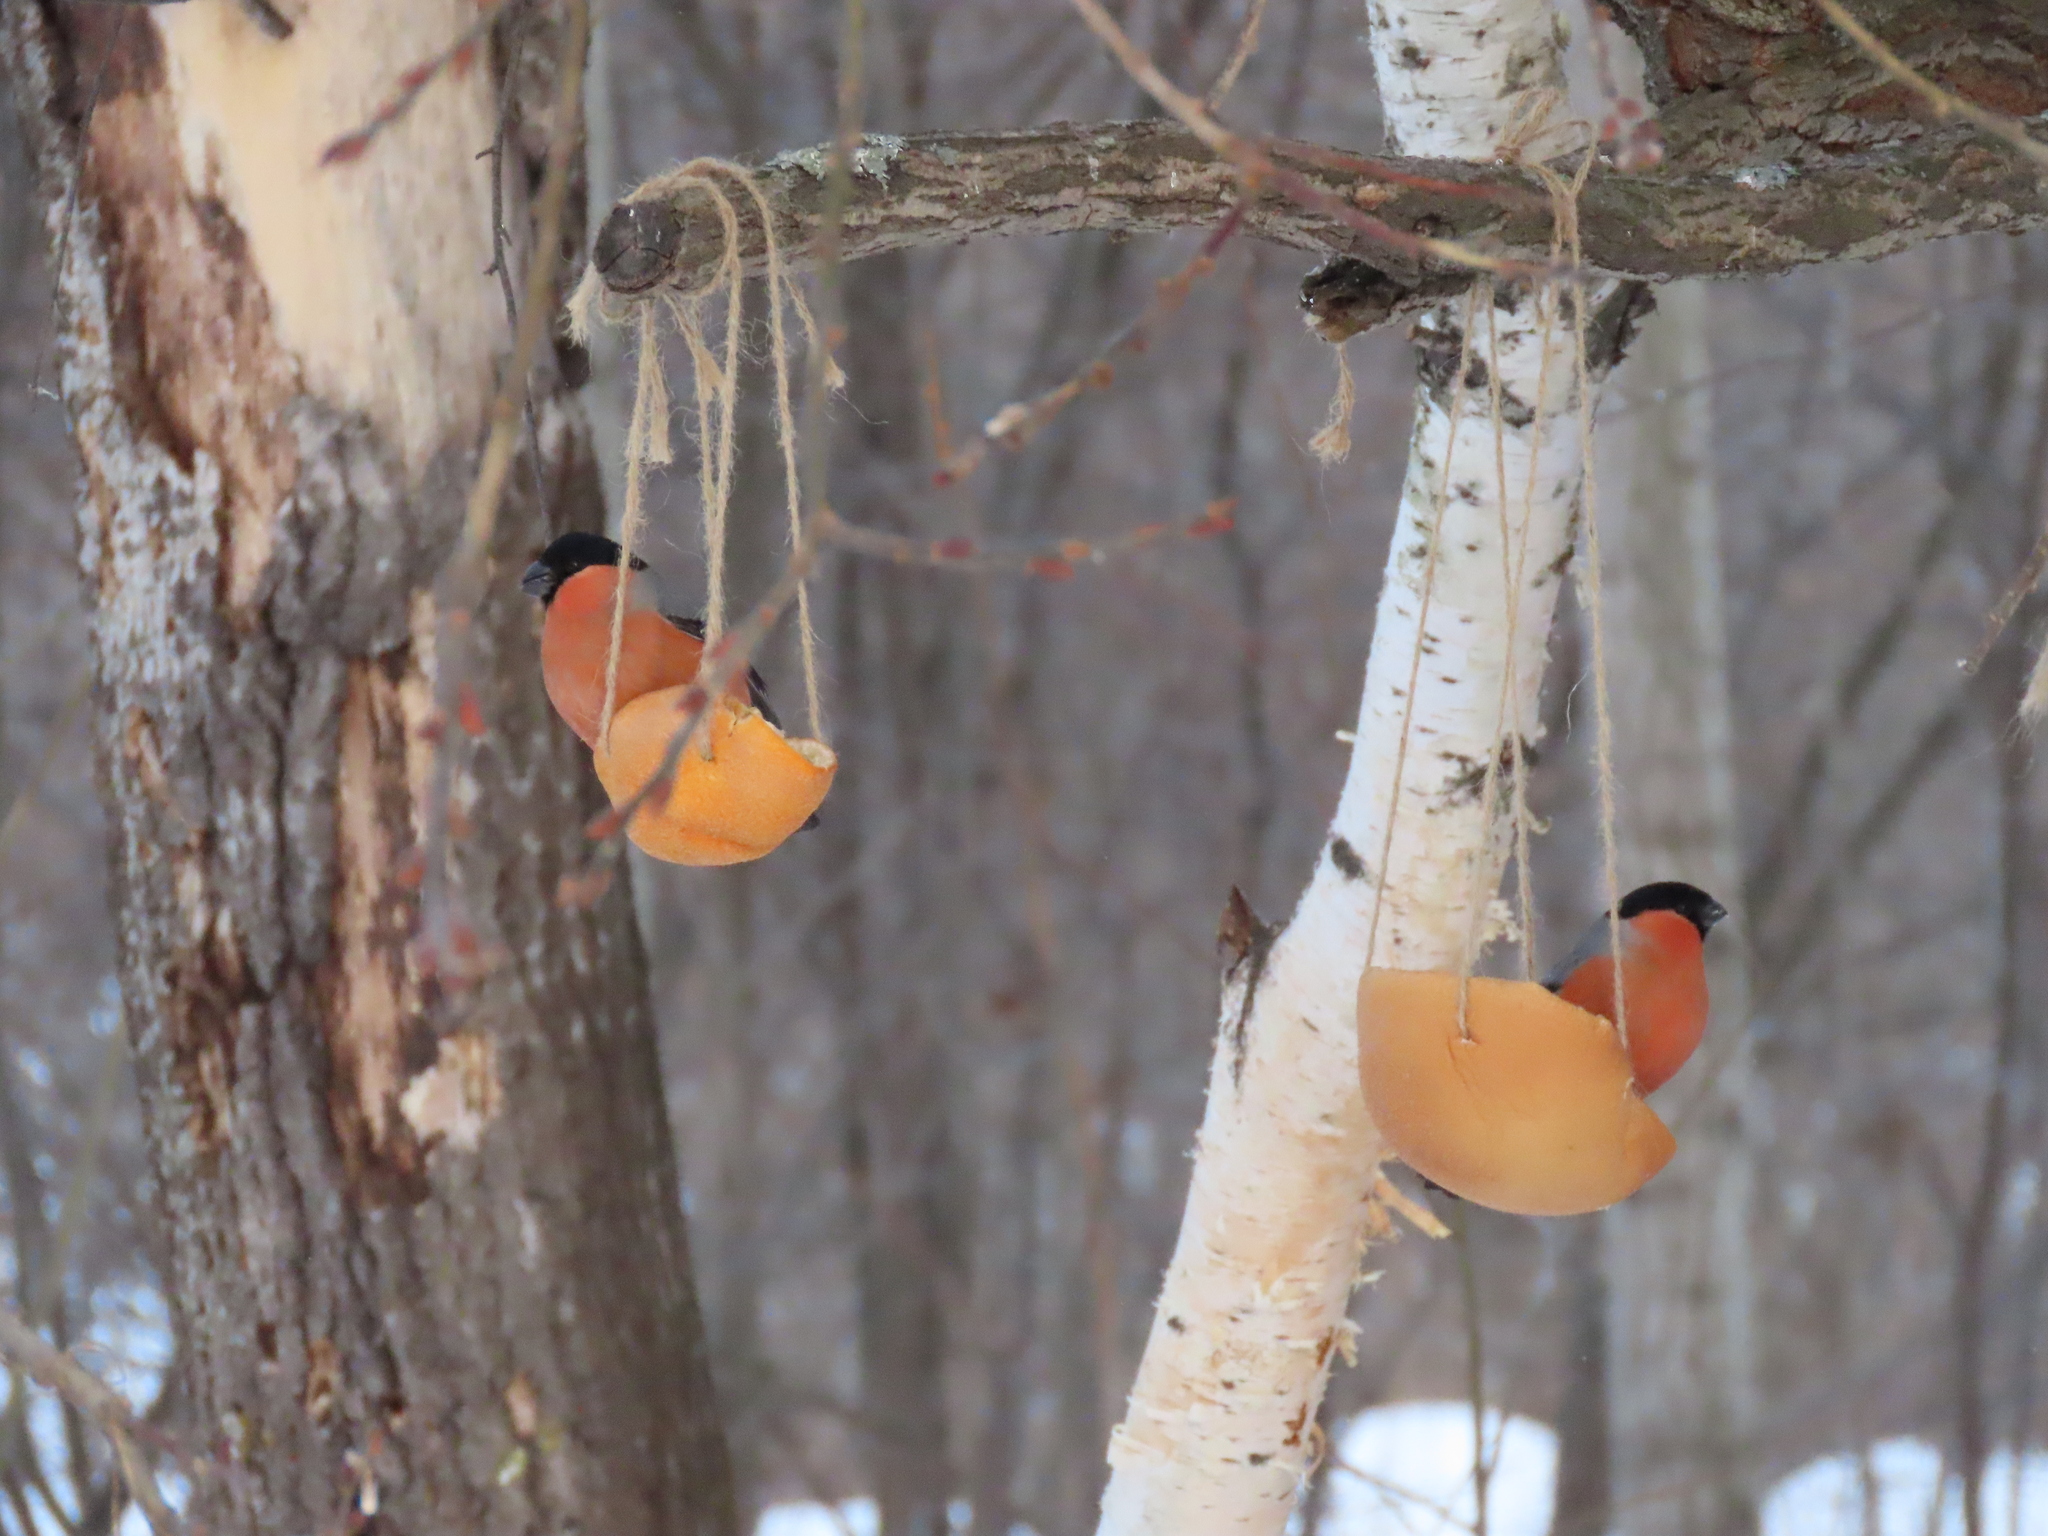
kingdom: Animalia
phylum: Chordata
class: Aves
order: Passeriformes
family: Fringillidae
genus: Pyrrhula
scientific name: Pyrrhula pyrrhula
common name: Eurasian bullfinch
